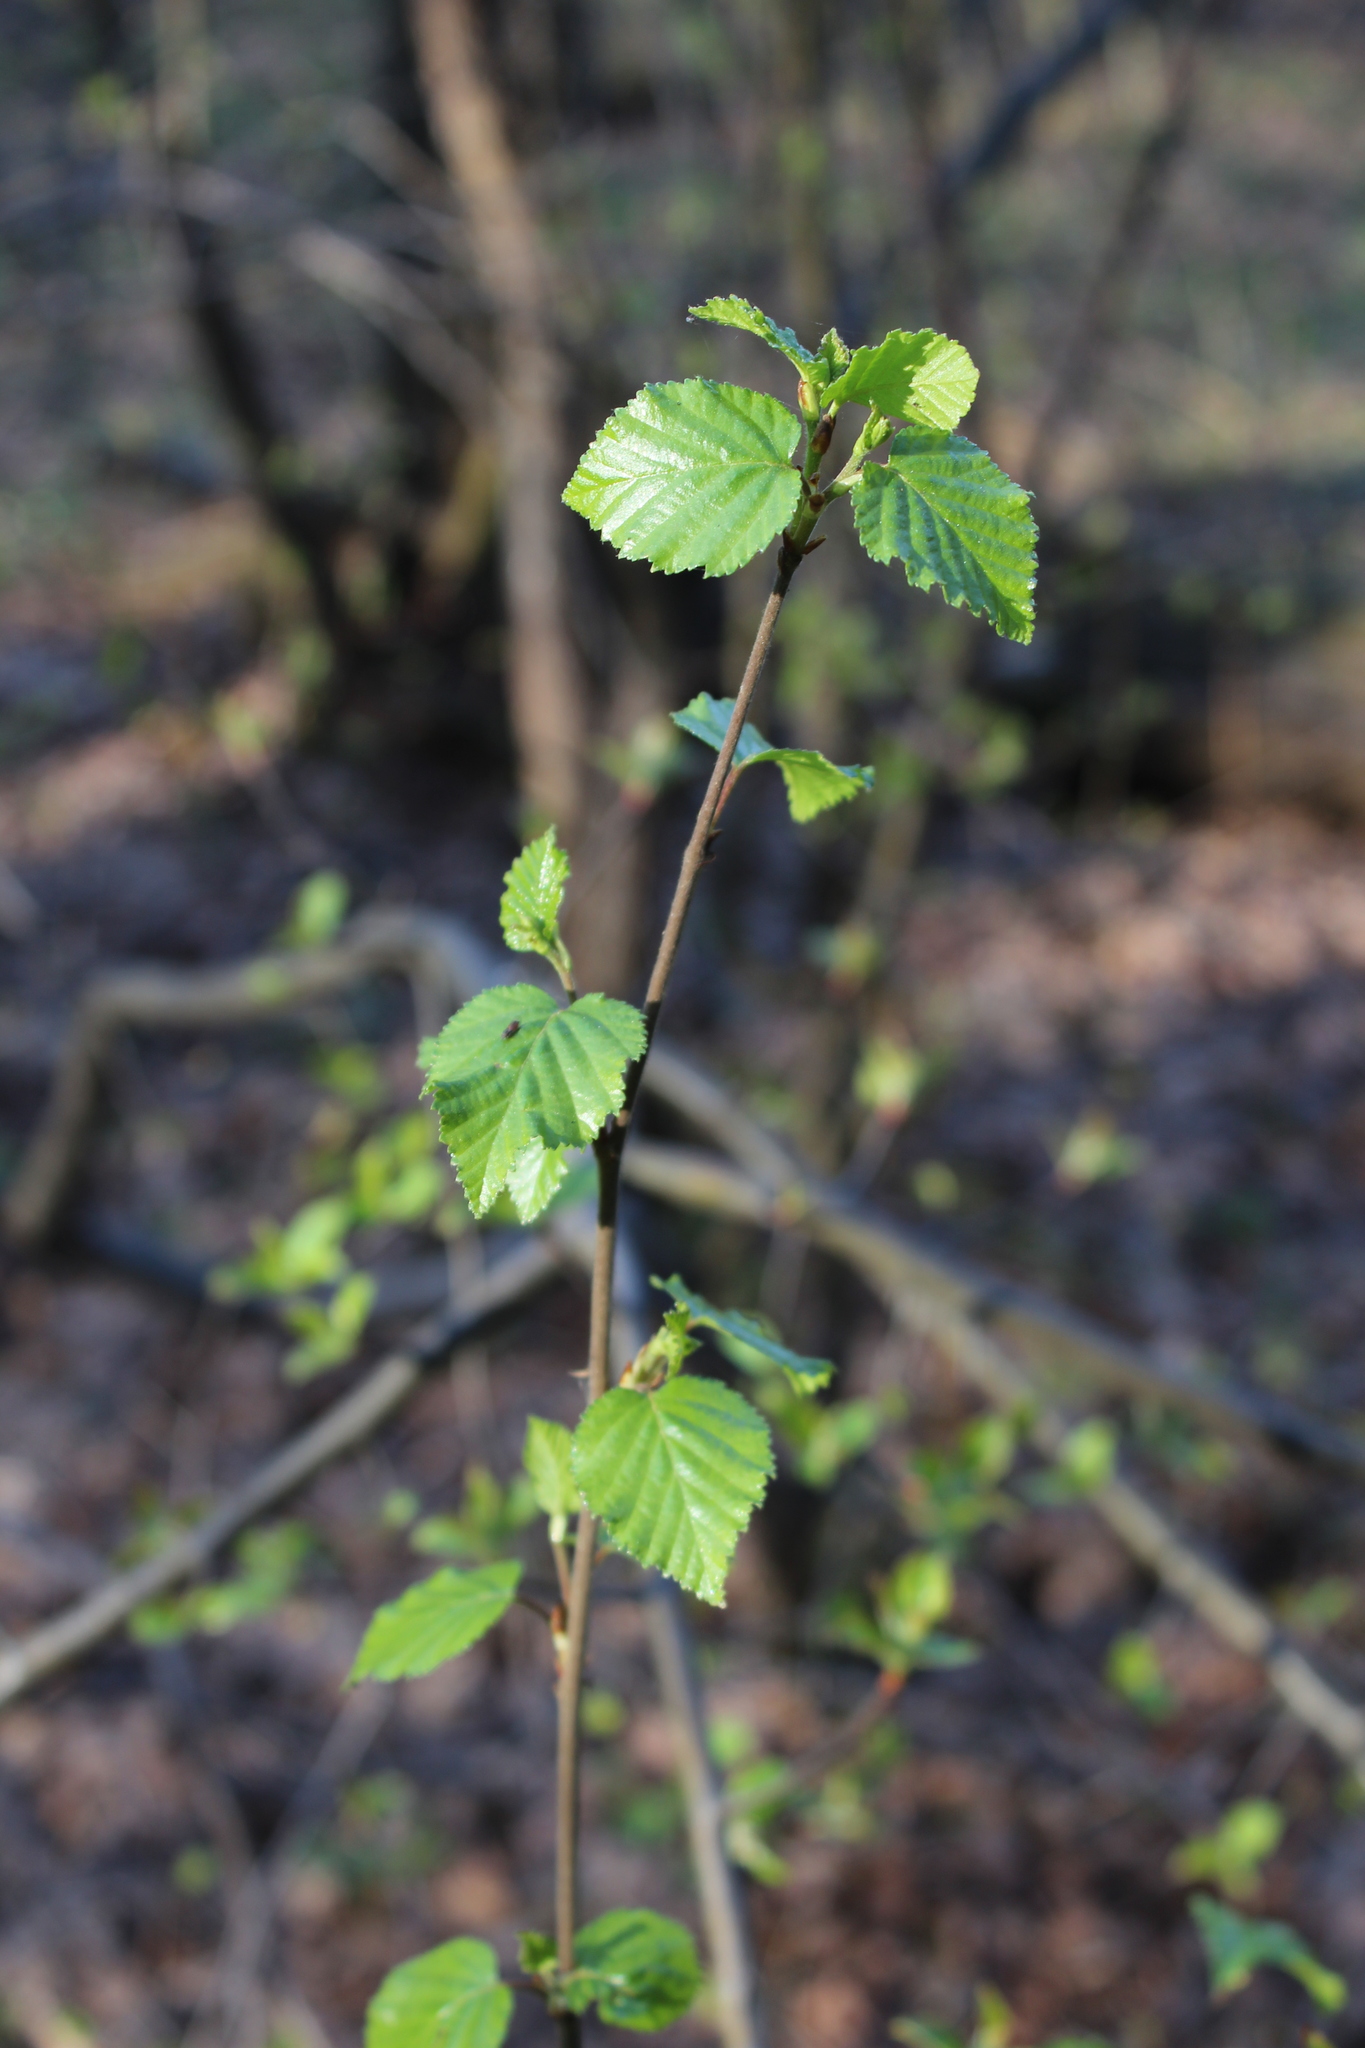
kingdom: Plantae
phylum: Tracheophyta
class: Magnoliopsida
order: Fagales
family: Betulaceae
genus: Betula
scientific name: Betula pubescens
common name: Downy birch
